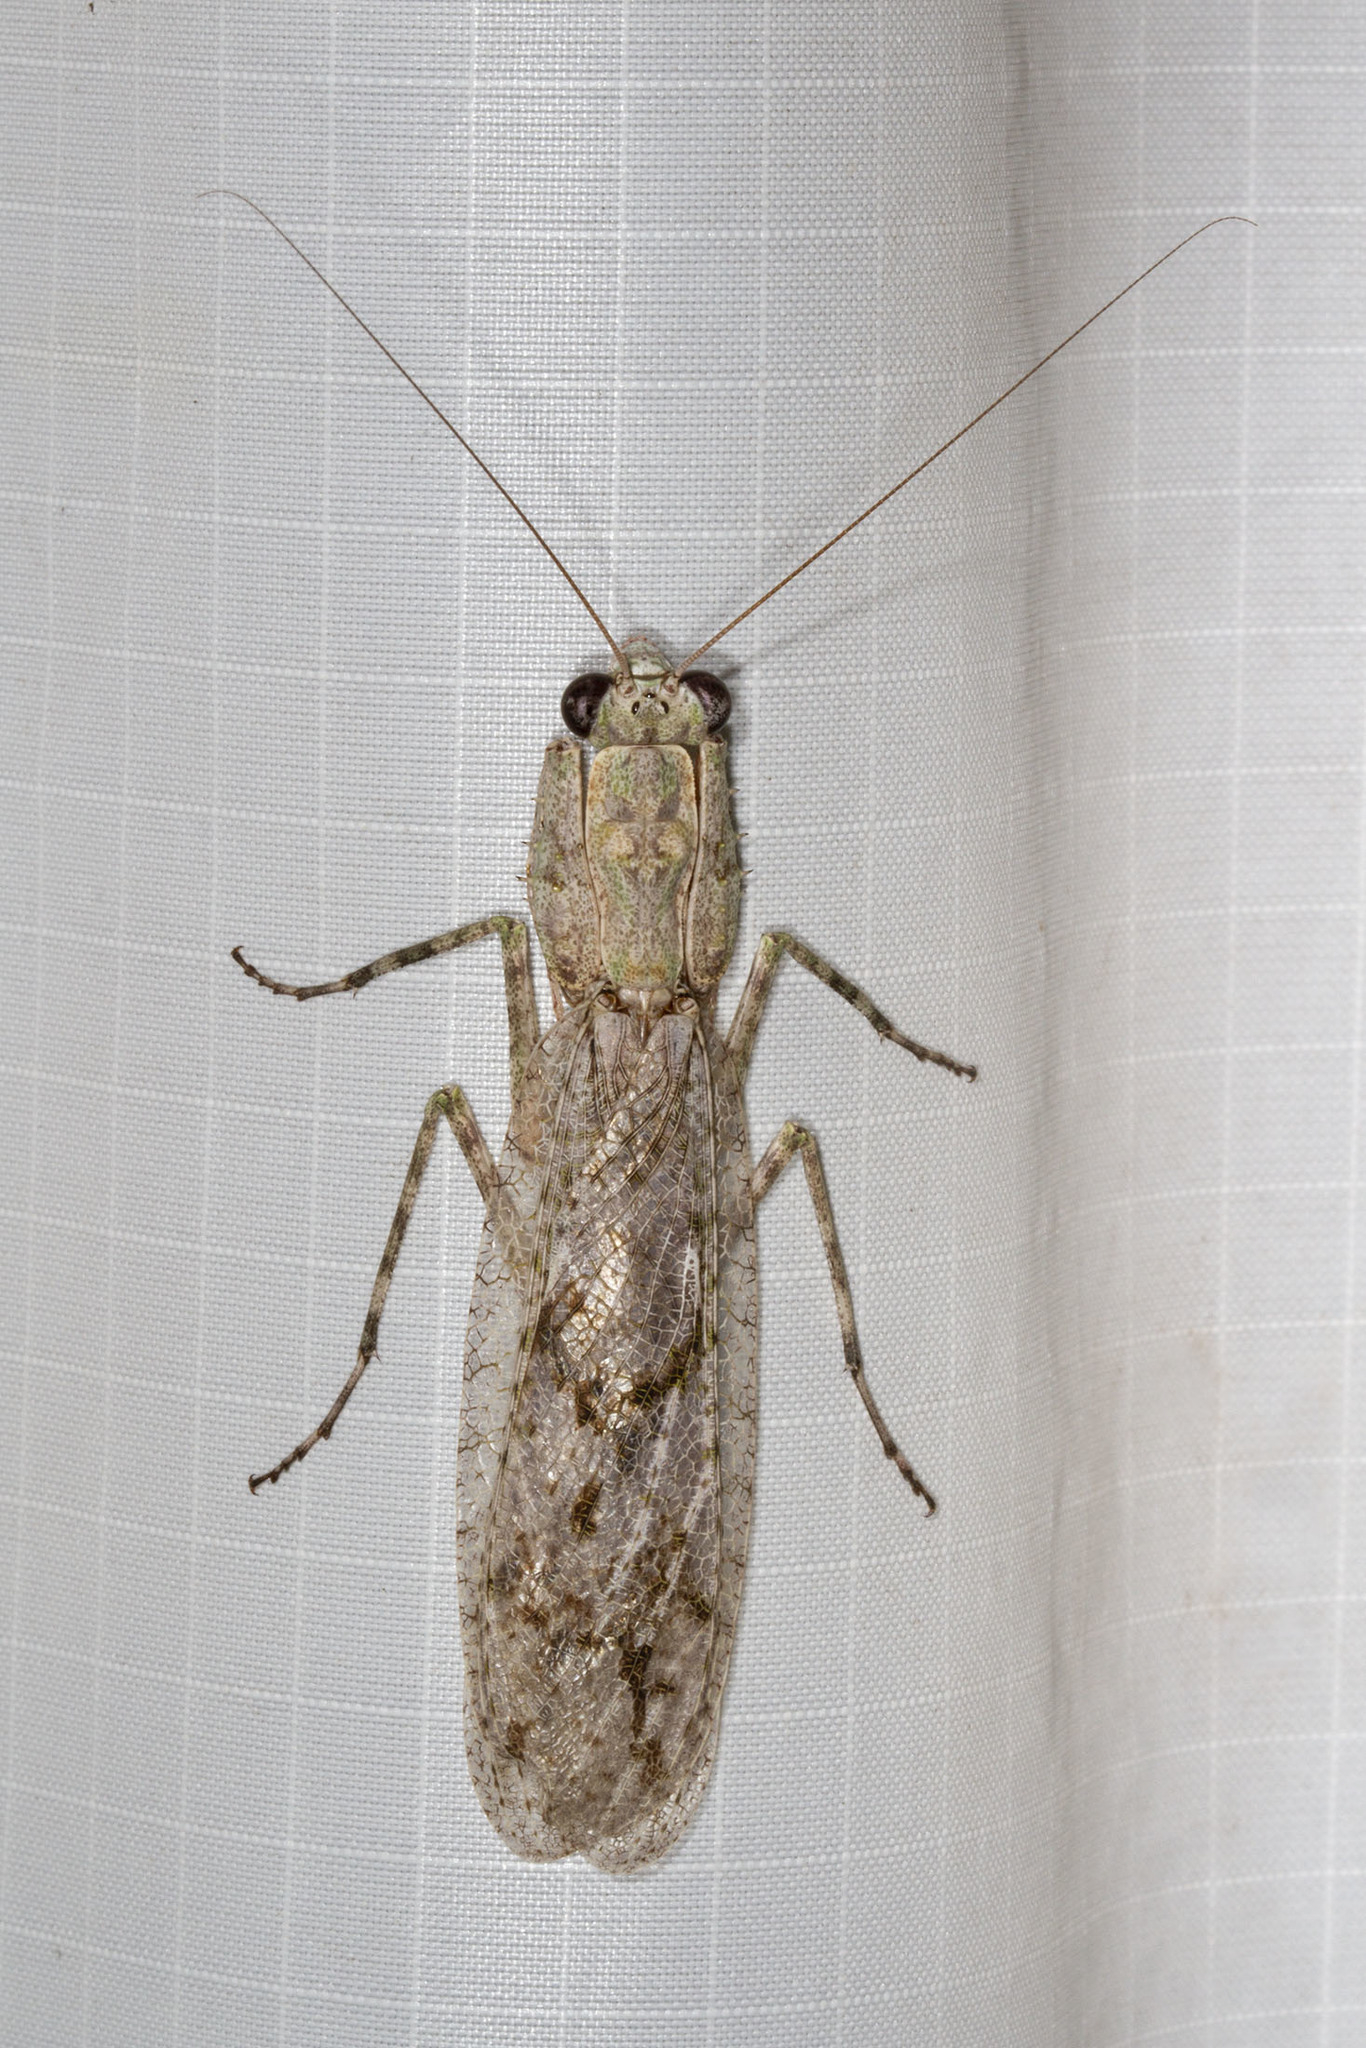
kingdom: Animalia
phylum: Arthropoda
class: Insecta
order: Mantodea
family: Epaphroditidae
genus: Gonatista
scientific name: Gonatista grisea
